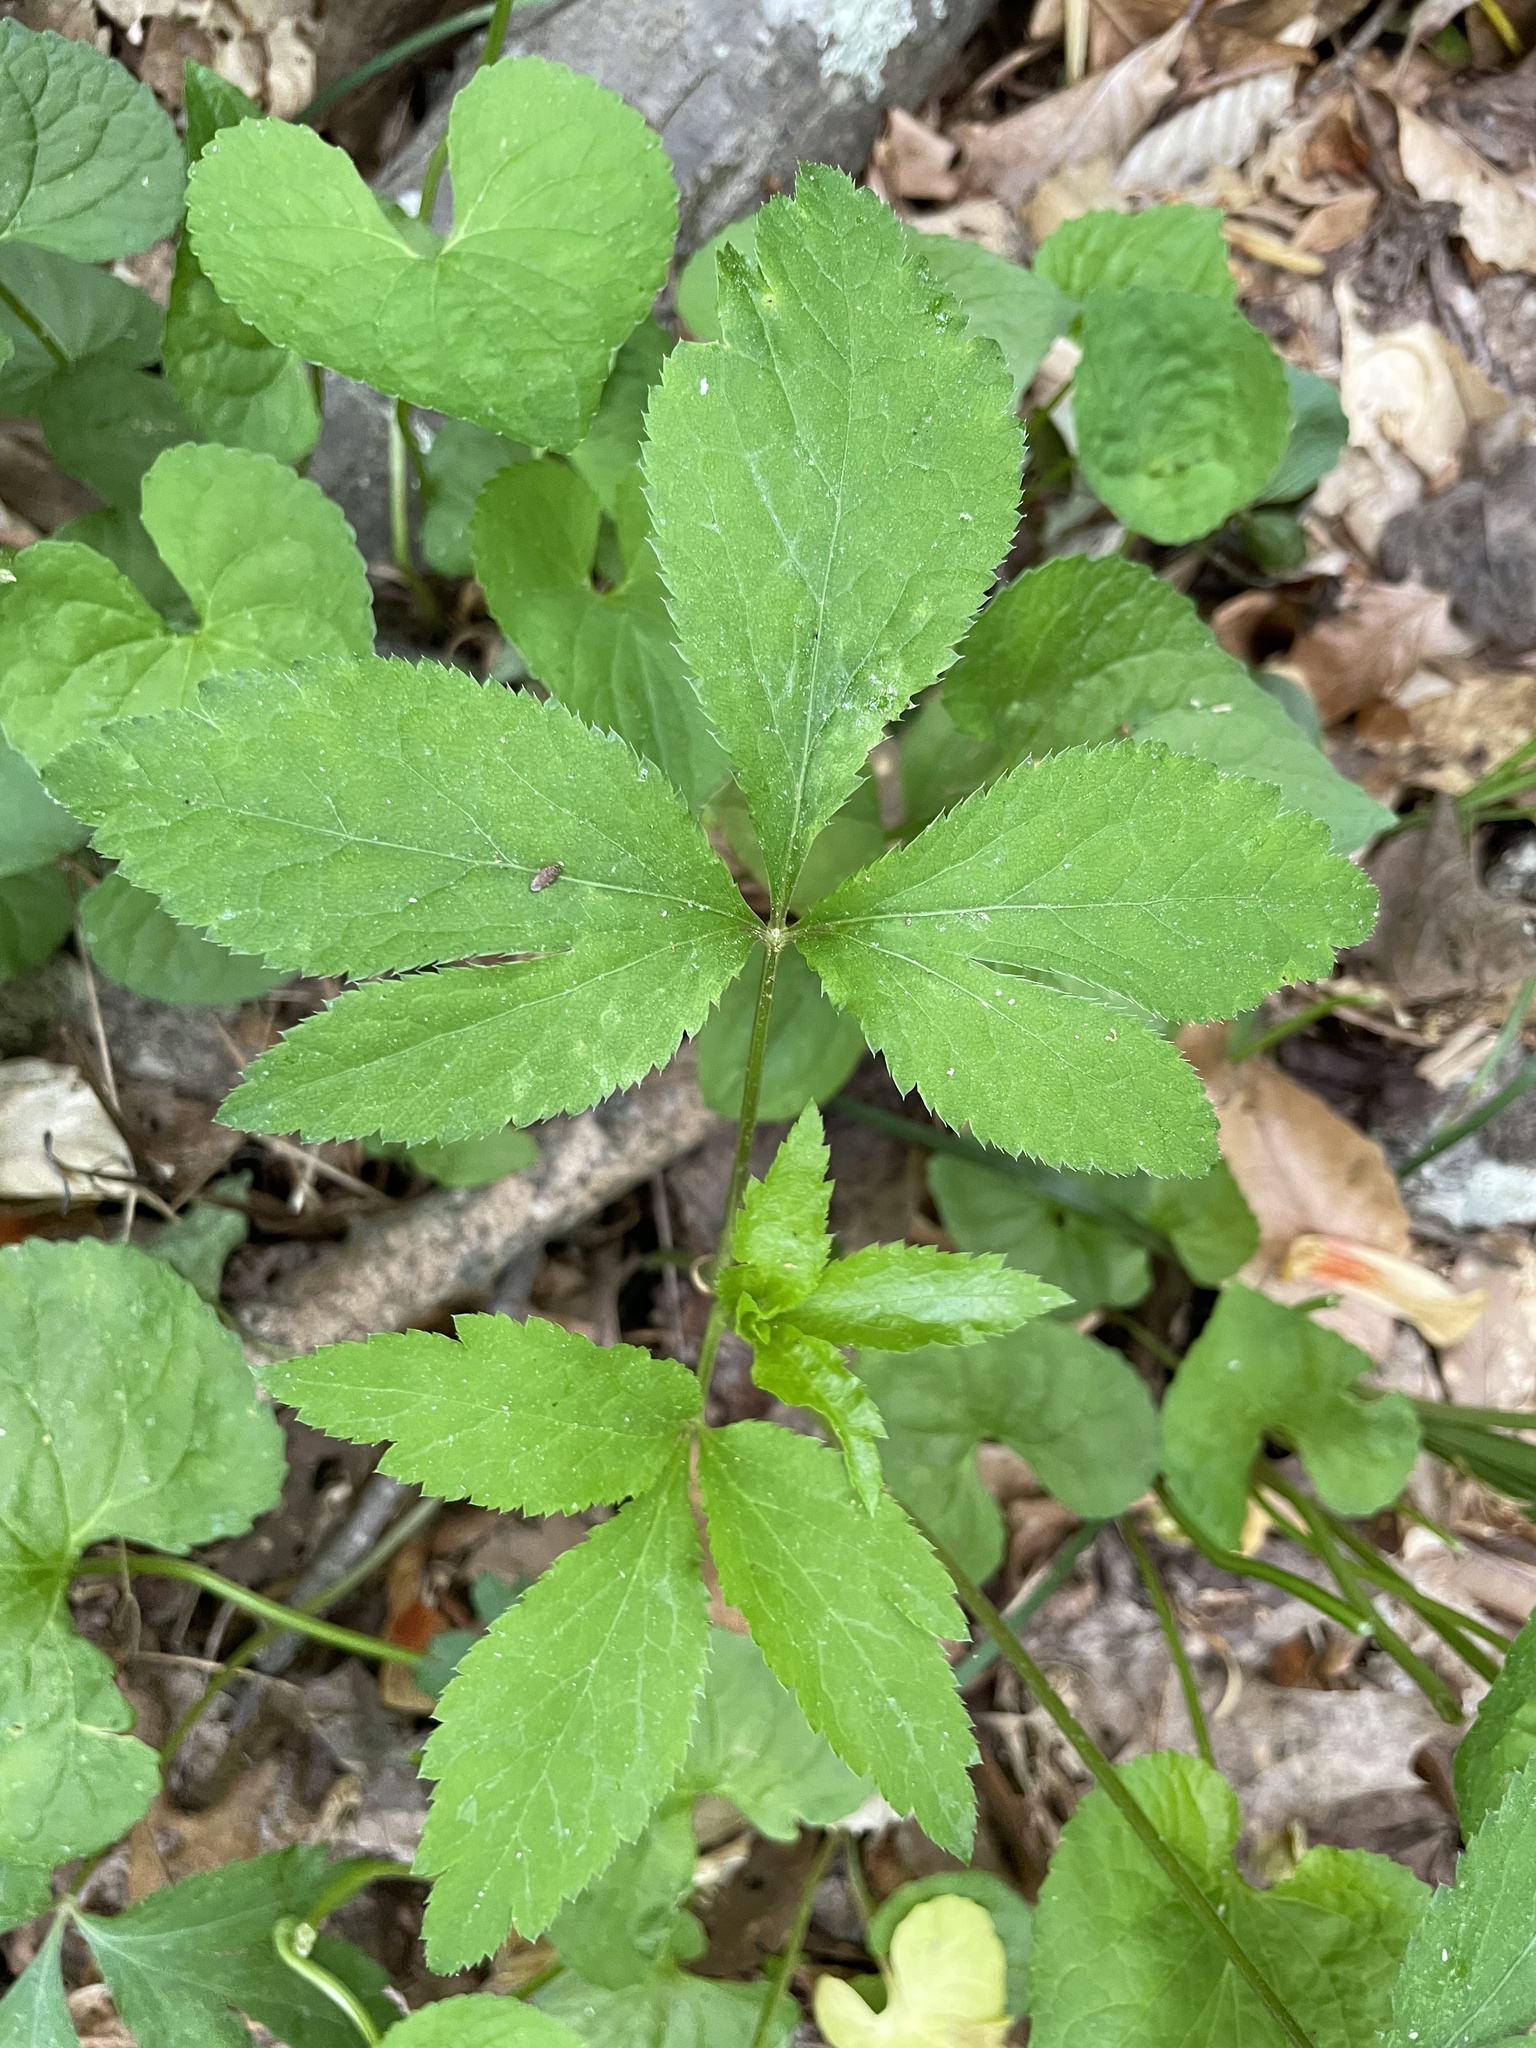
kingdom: Plantae
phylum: Tracheophyta
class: Magnoliopsida
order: Apiales
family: Apiaceae
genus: Sanicula
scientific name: Sanicula canadensis
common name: Canada sanicle
